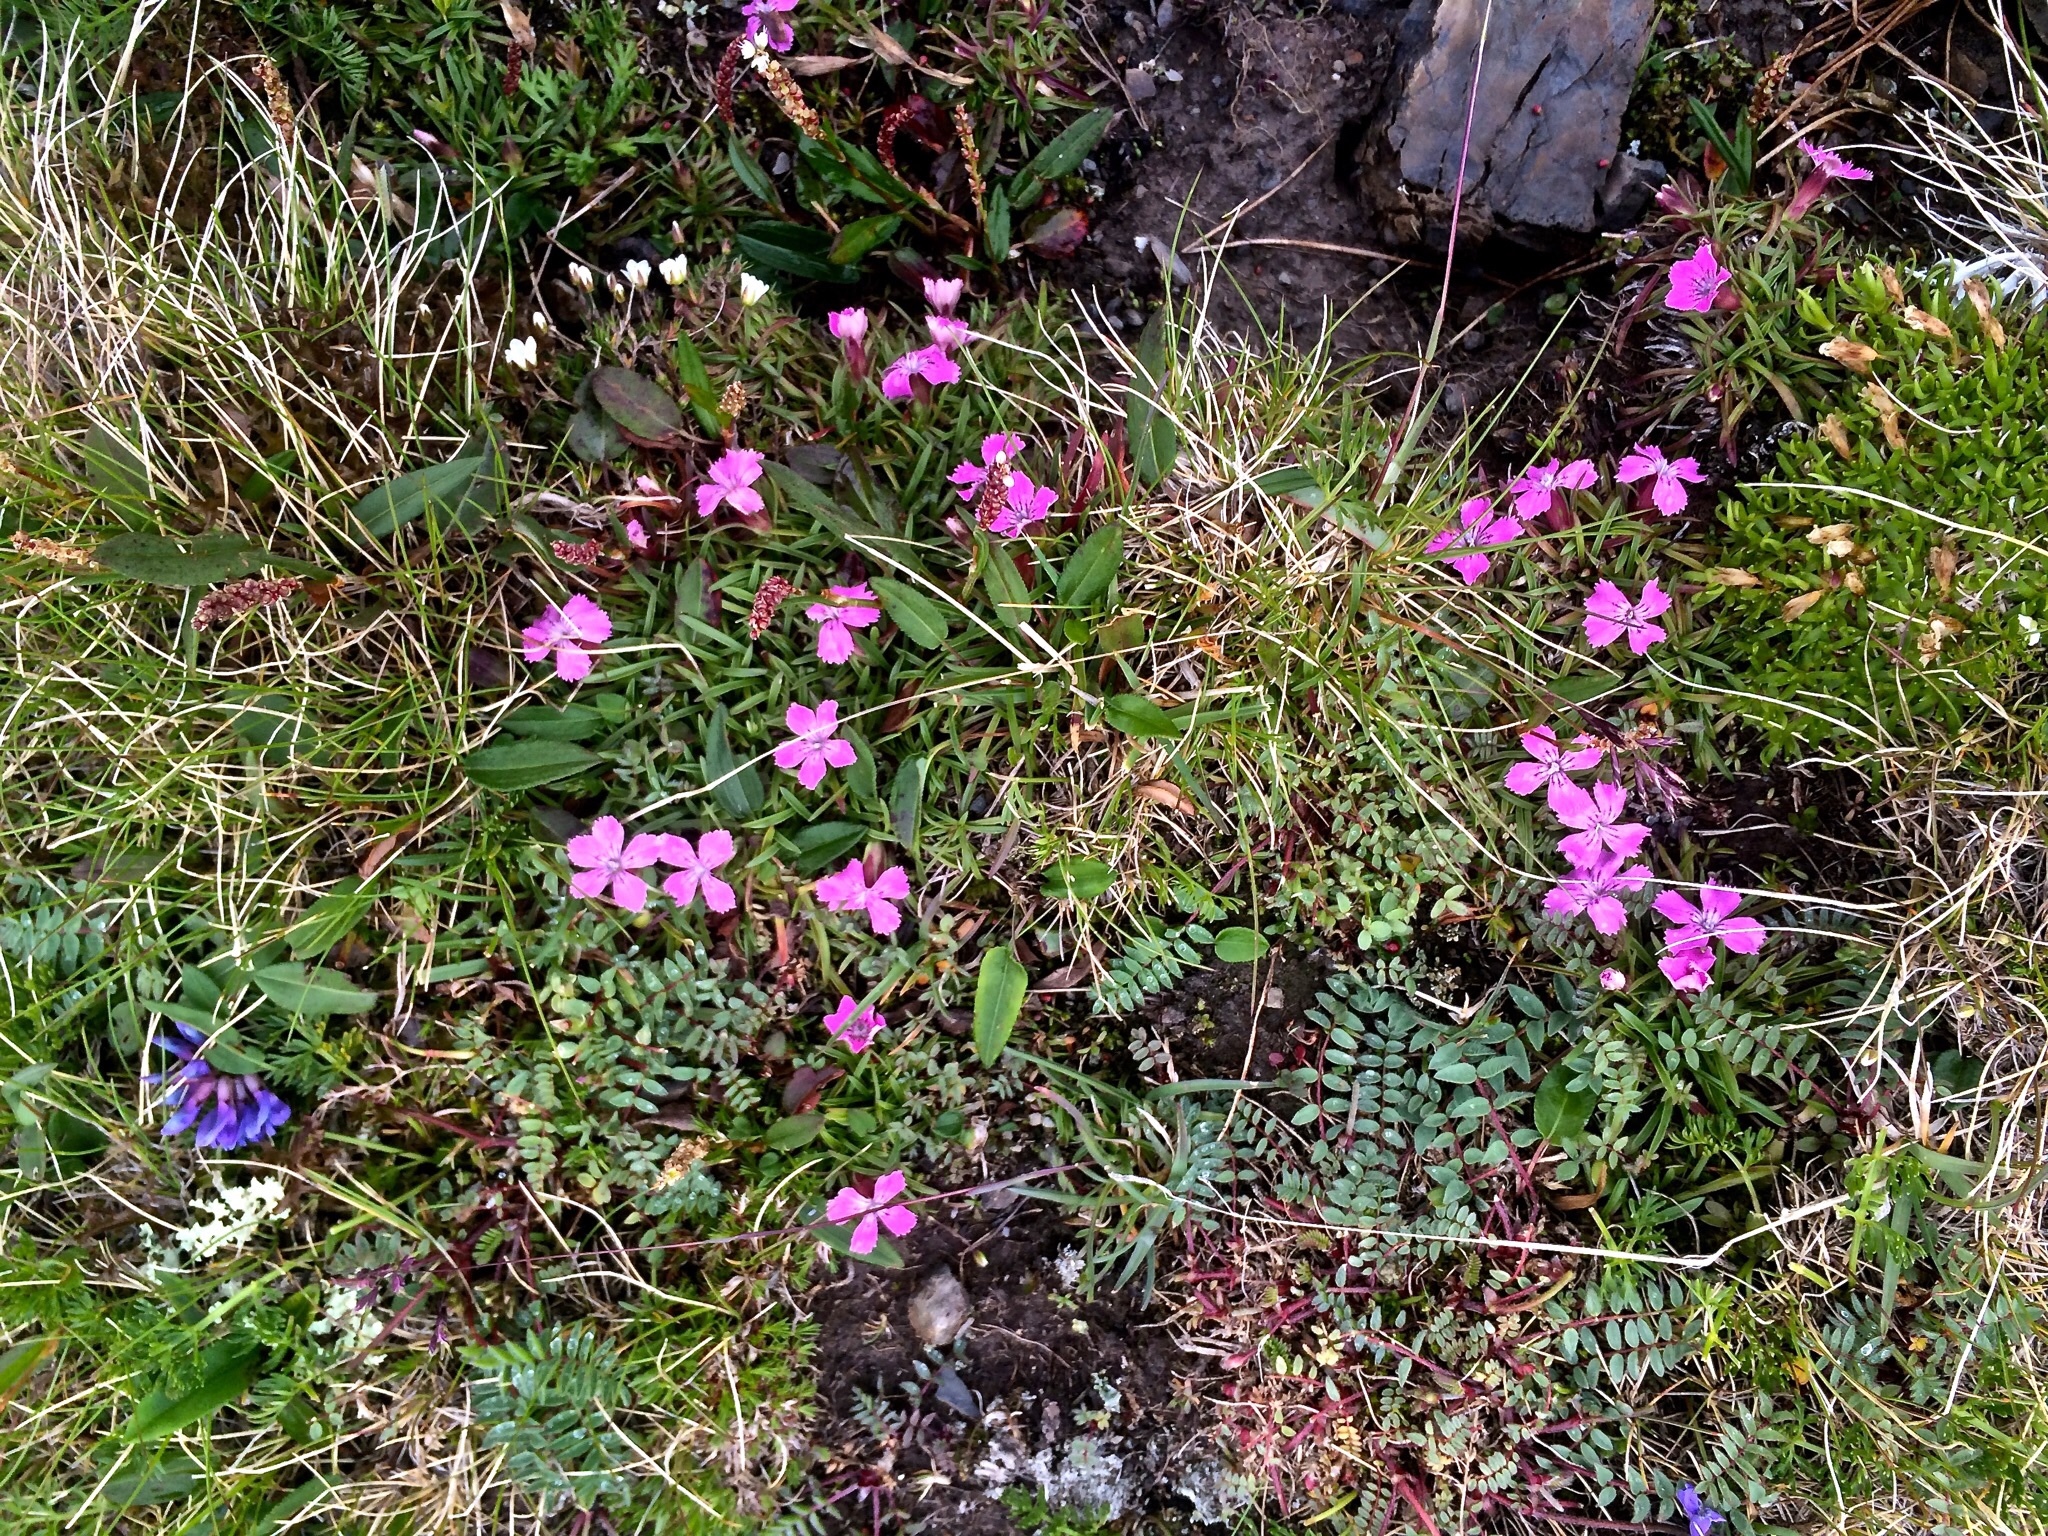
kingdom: Plantae
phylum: Tracheophyta
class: Magnoliopsida
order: Caryophyllales
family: Caryophyllaceae
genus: Dianthus
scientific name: Dianthus glacialis
